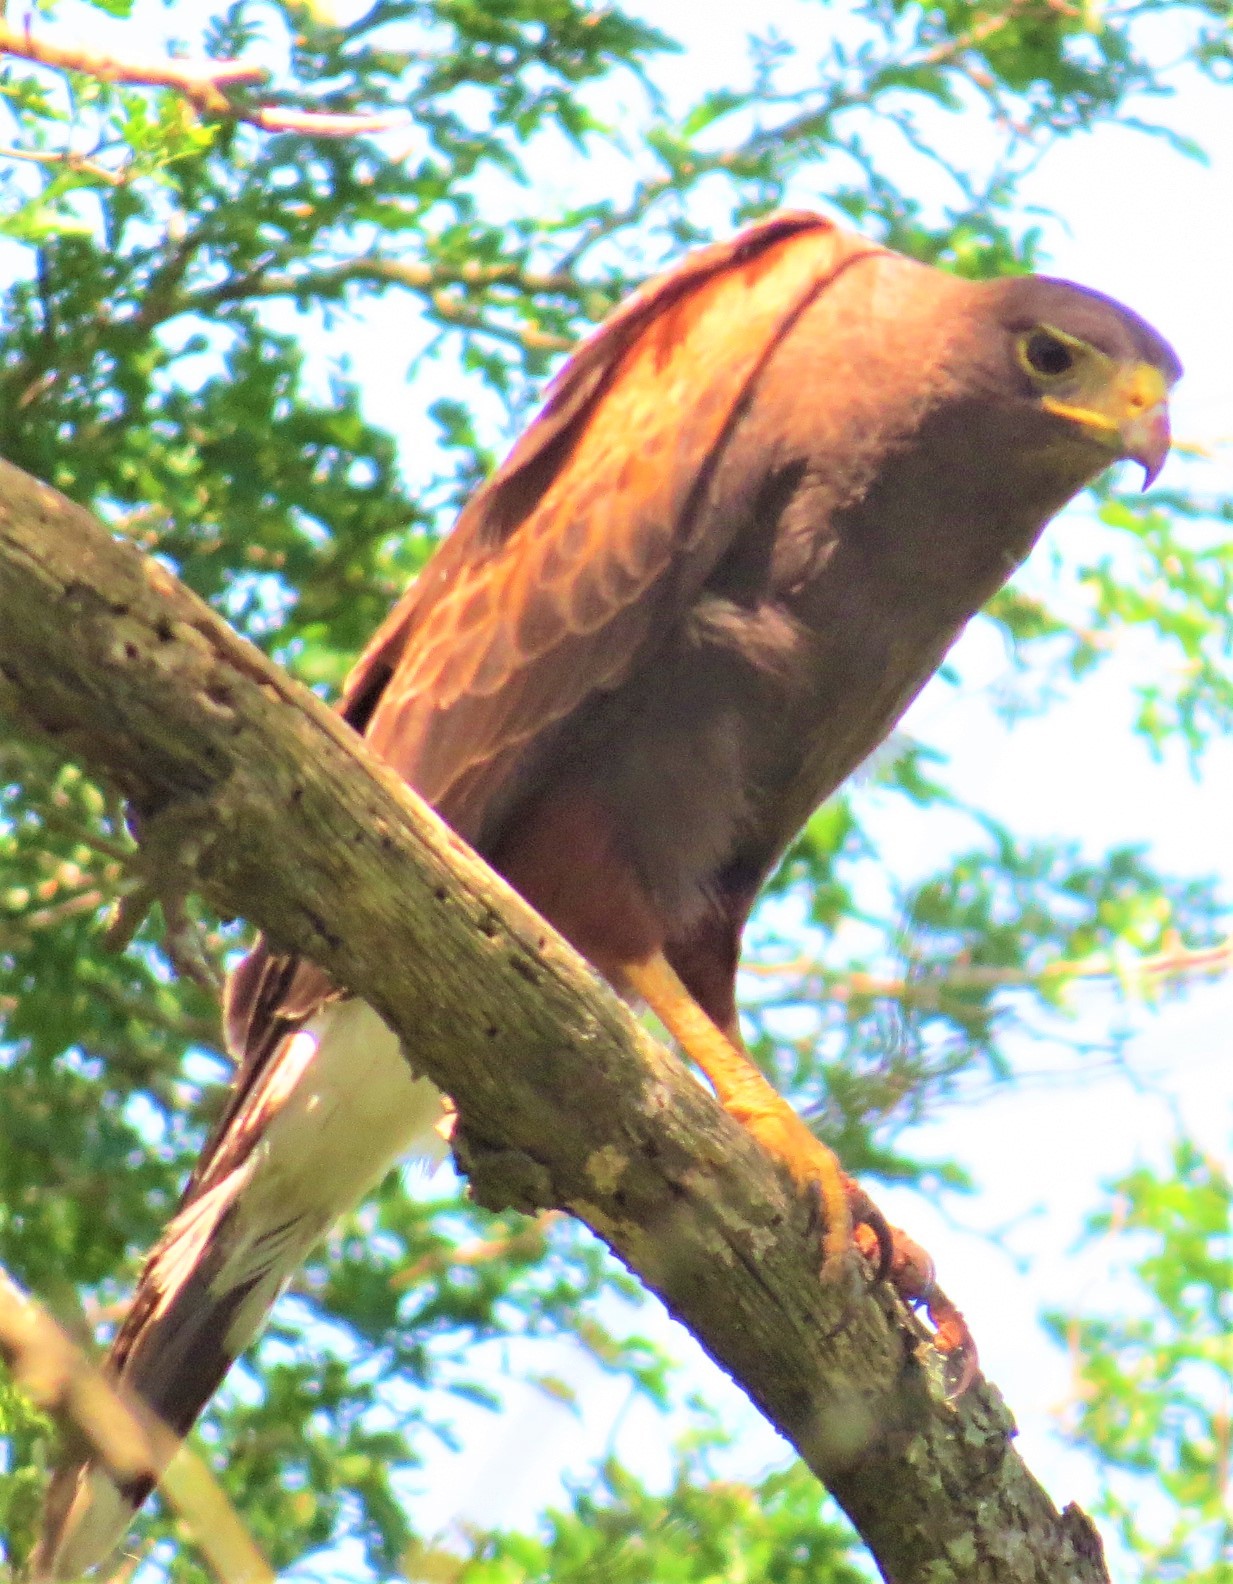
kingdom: Animalia
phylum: Chordata
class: Aves
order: Accipitriformes
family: Accipitridae
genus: Parabuteo
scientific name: Parabuteo unicinctus
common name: Harris's hawk
